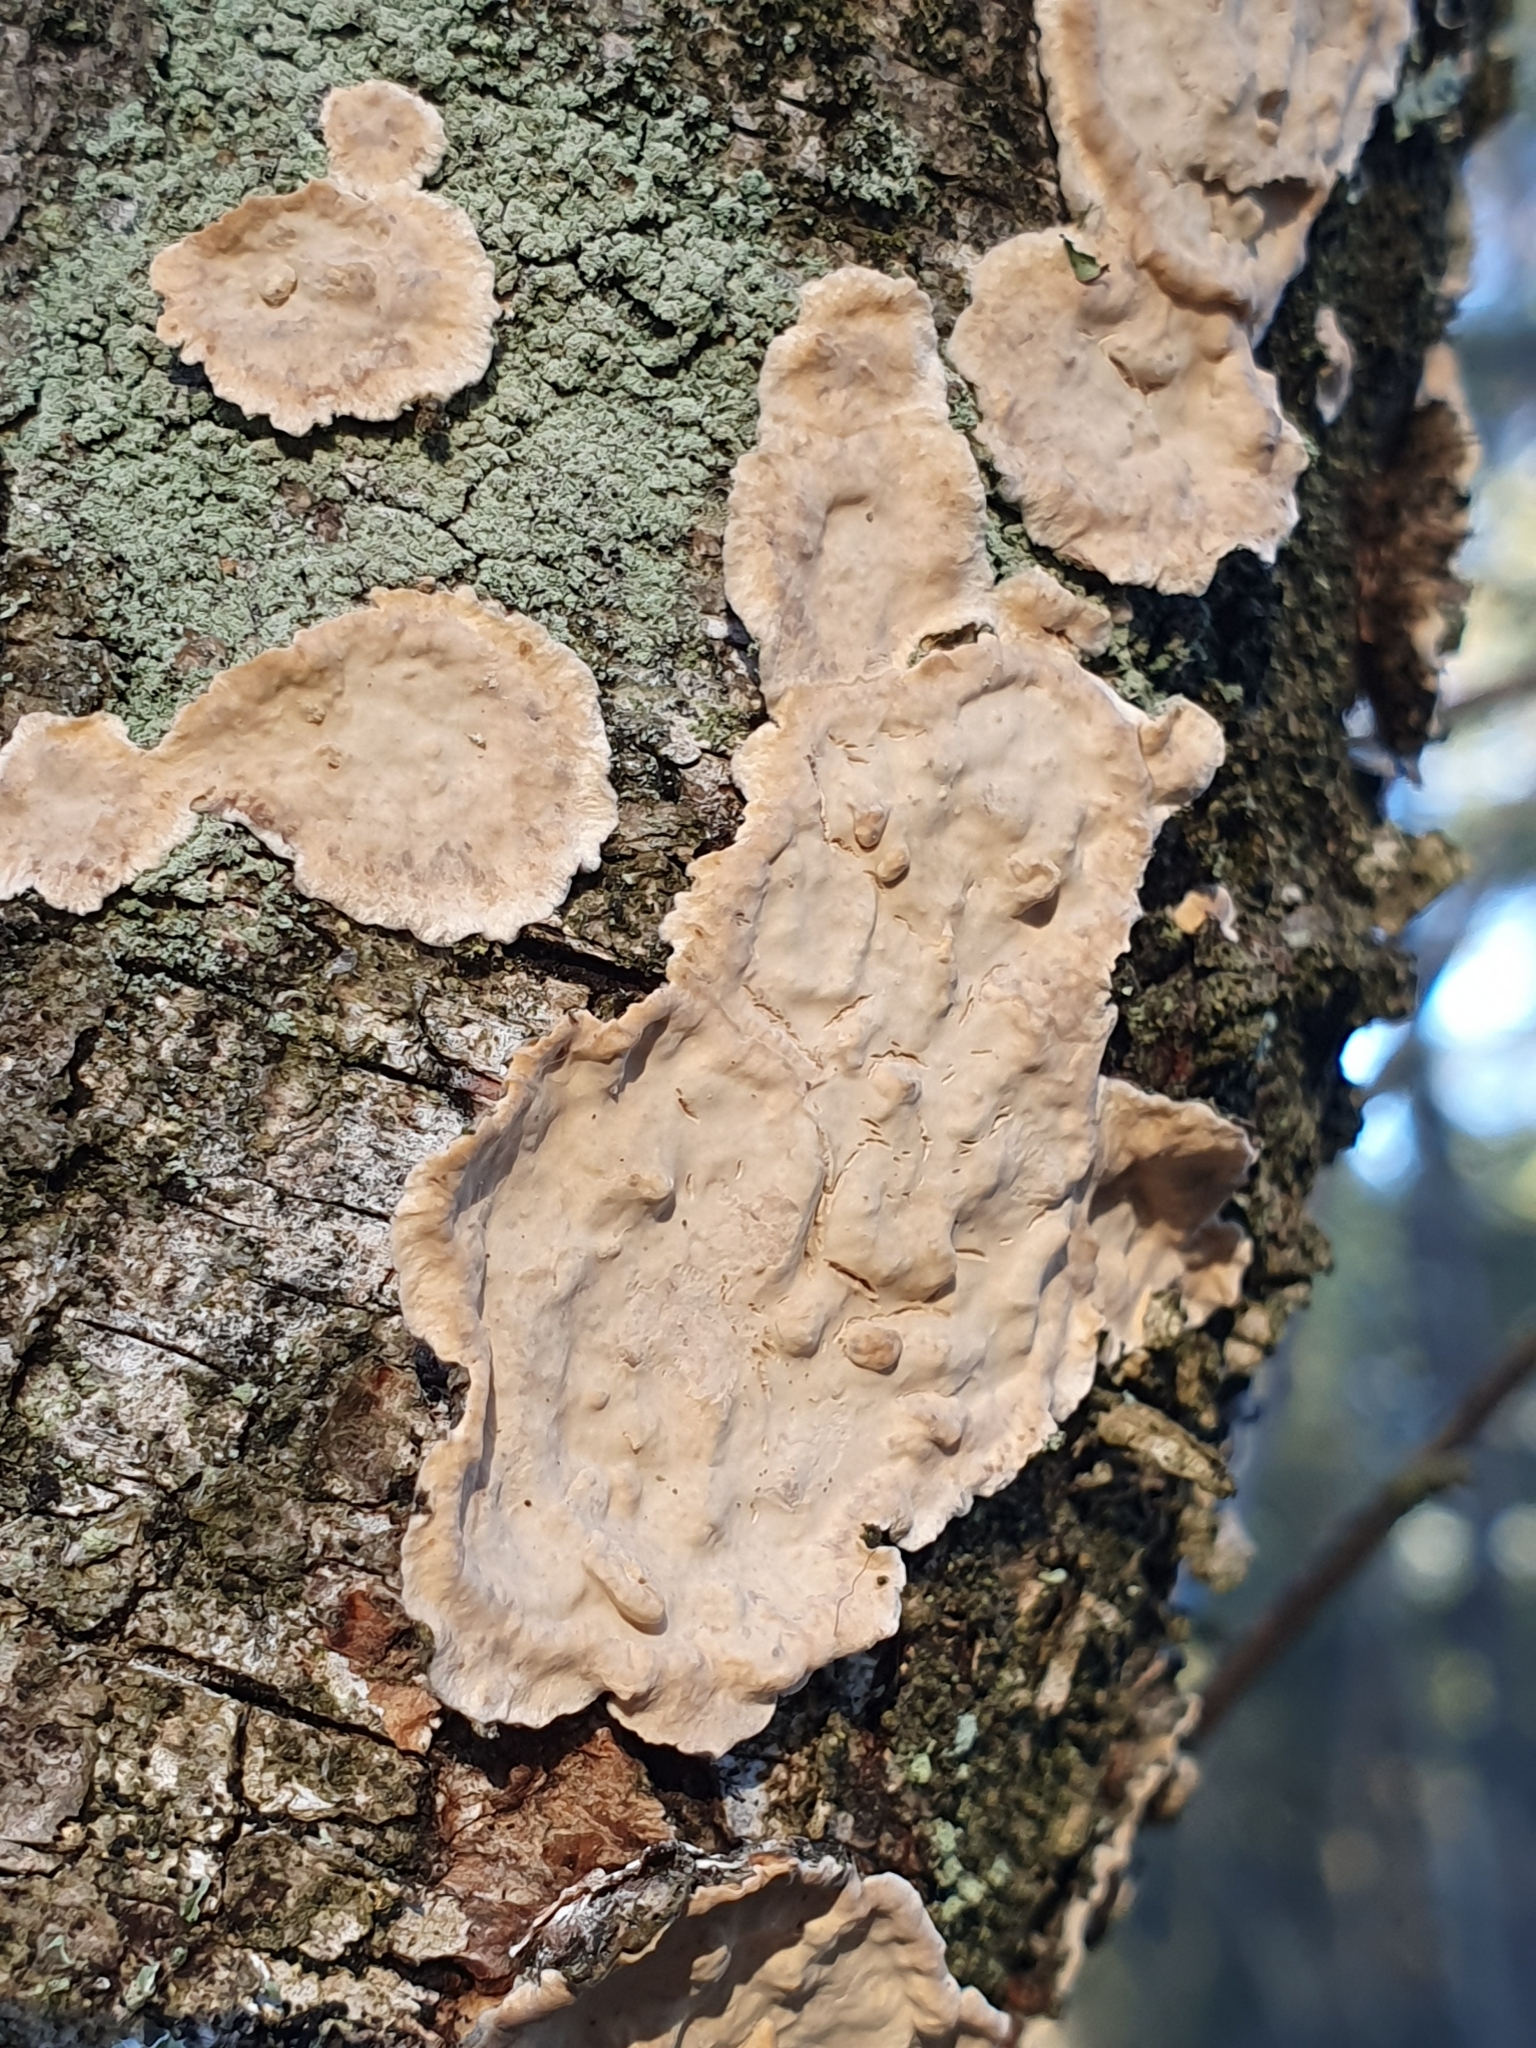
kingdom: Fungi
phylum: Basidiomycota
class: Agaricomycetes
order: Russulales
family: Stereaceae
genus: Stereum
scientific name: Stereum rugosum
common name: Bleeding broadleaf crust
